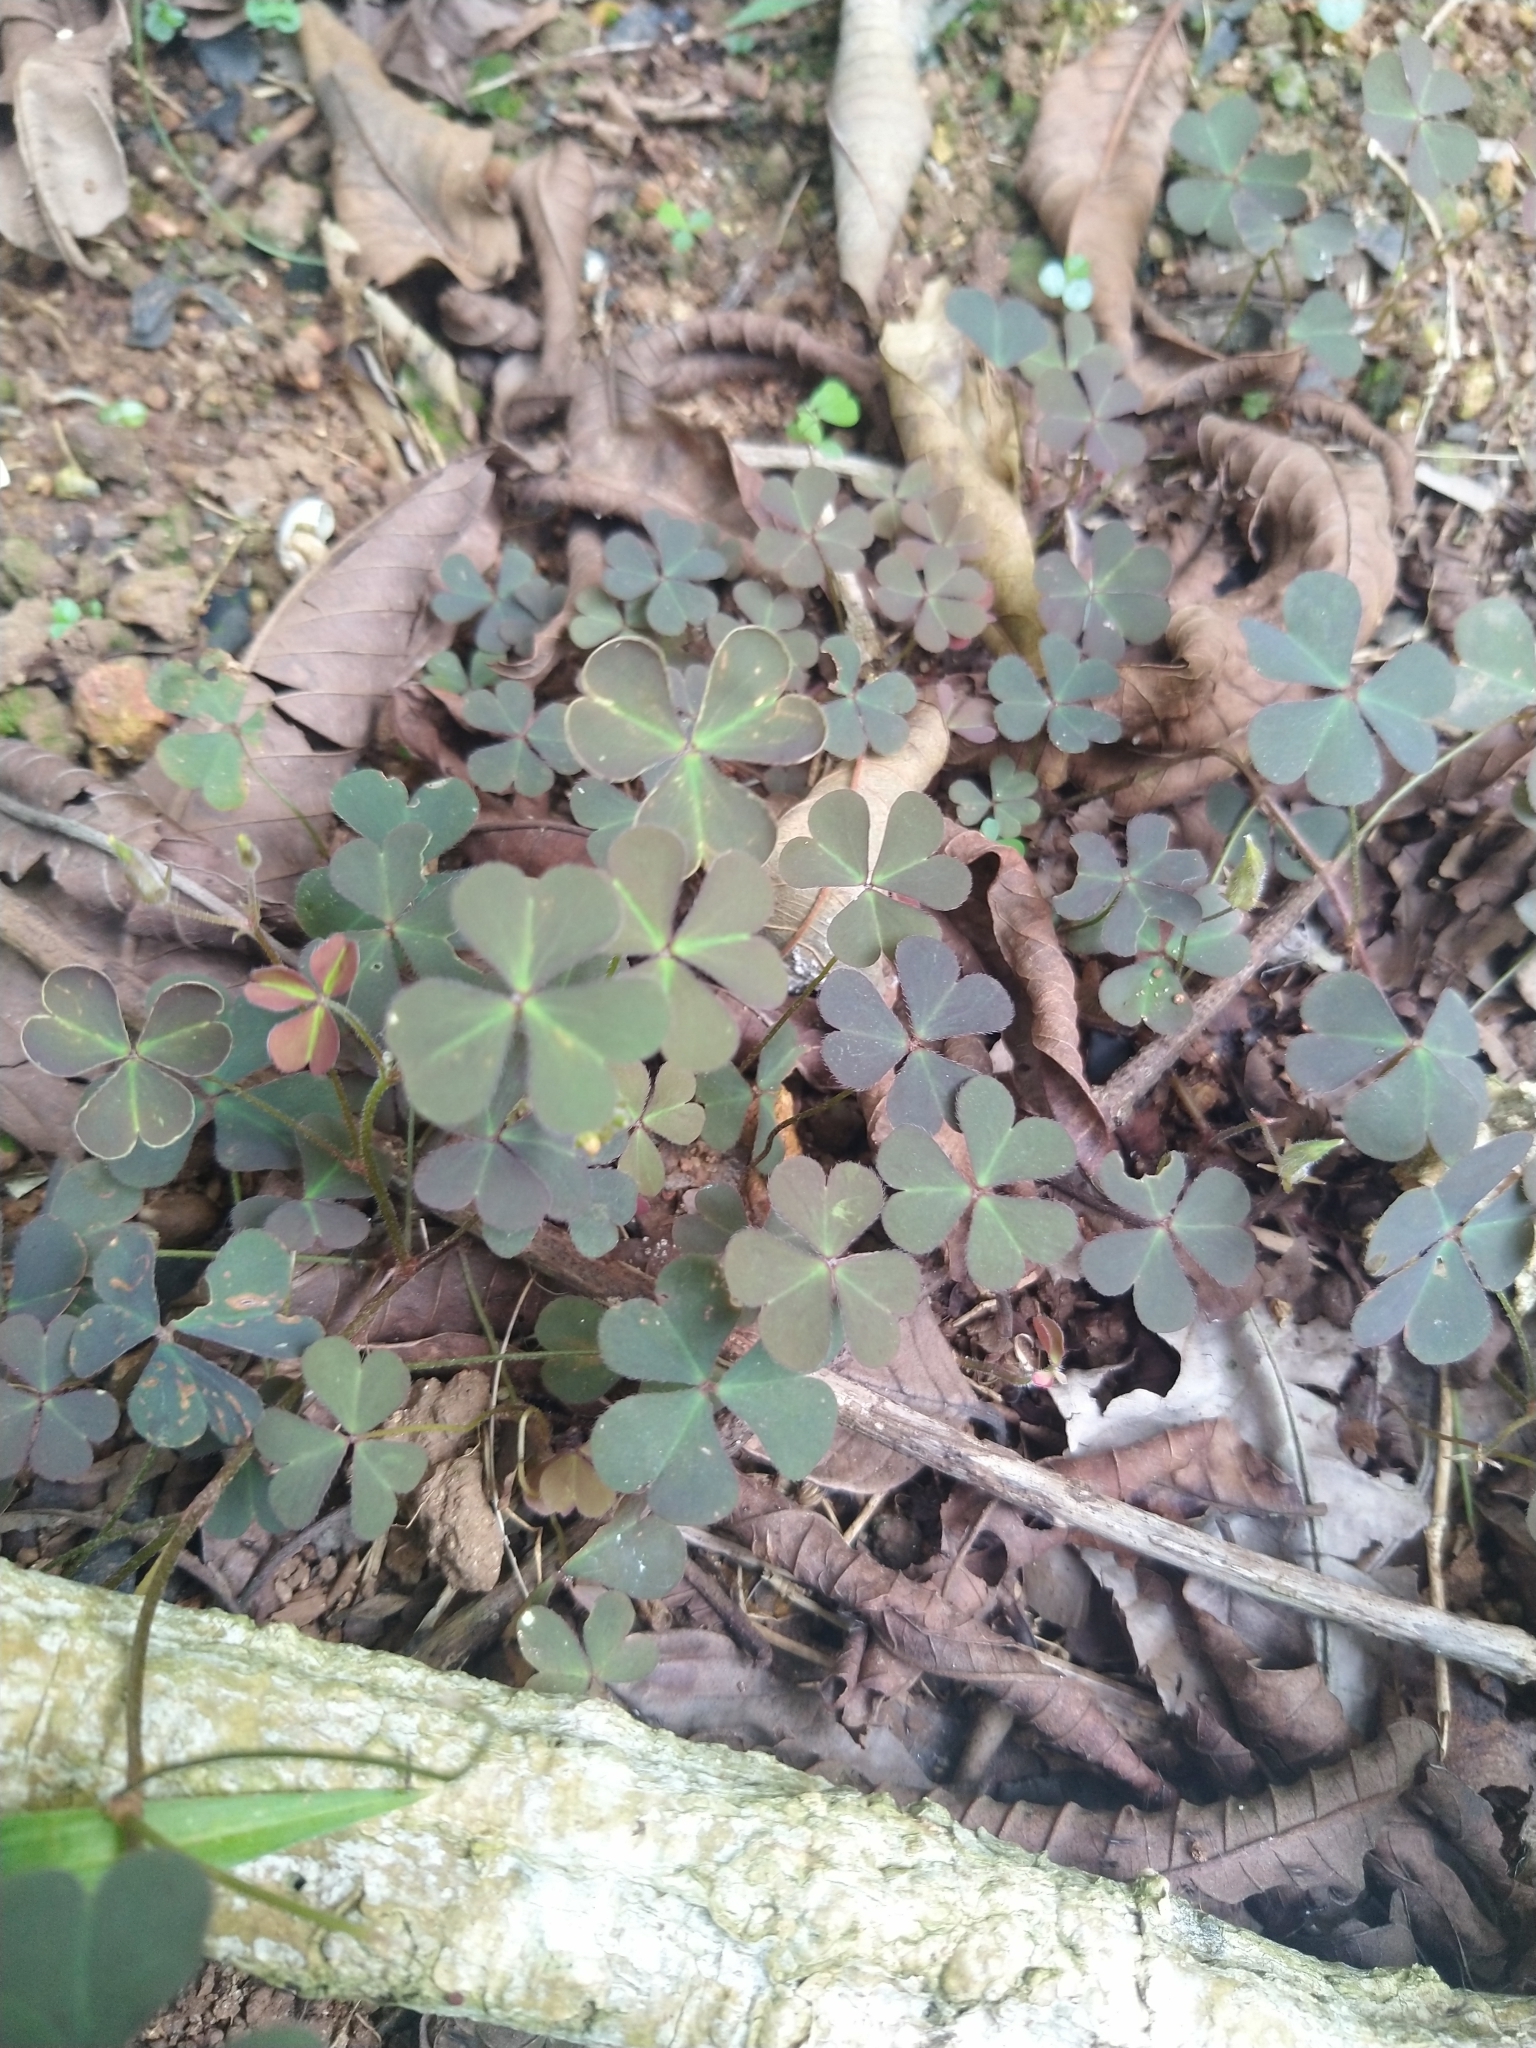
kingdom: Plantae
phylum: Tracheophyta
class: Magnoliopsida
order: Oxalidales
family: Oxalidaceae
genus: Oxalis
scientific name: Oxalis corniculata
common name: Procumbent yellow-sorrel
